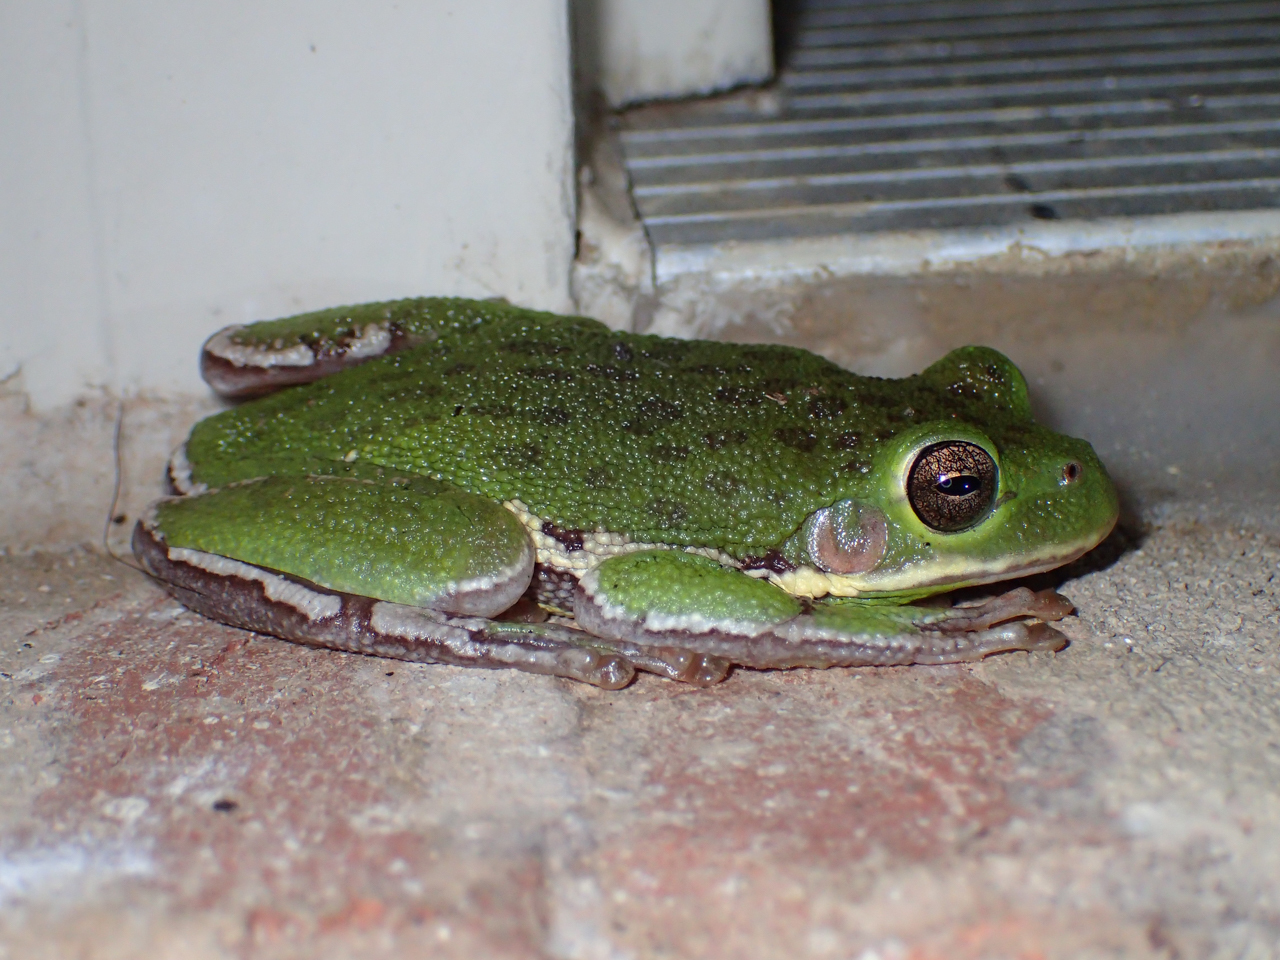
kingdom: Animalia
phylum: Chordata
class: Amphibia
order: Anura
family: Hylidae
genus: Dryophytes
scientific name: Dryophytes gratiosus
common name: Barking treefrog
